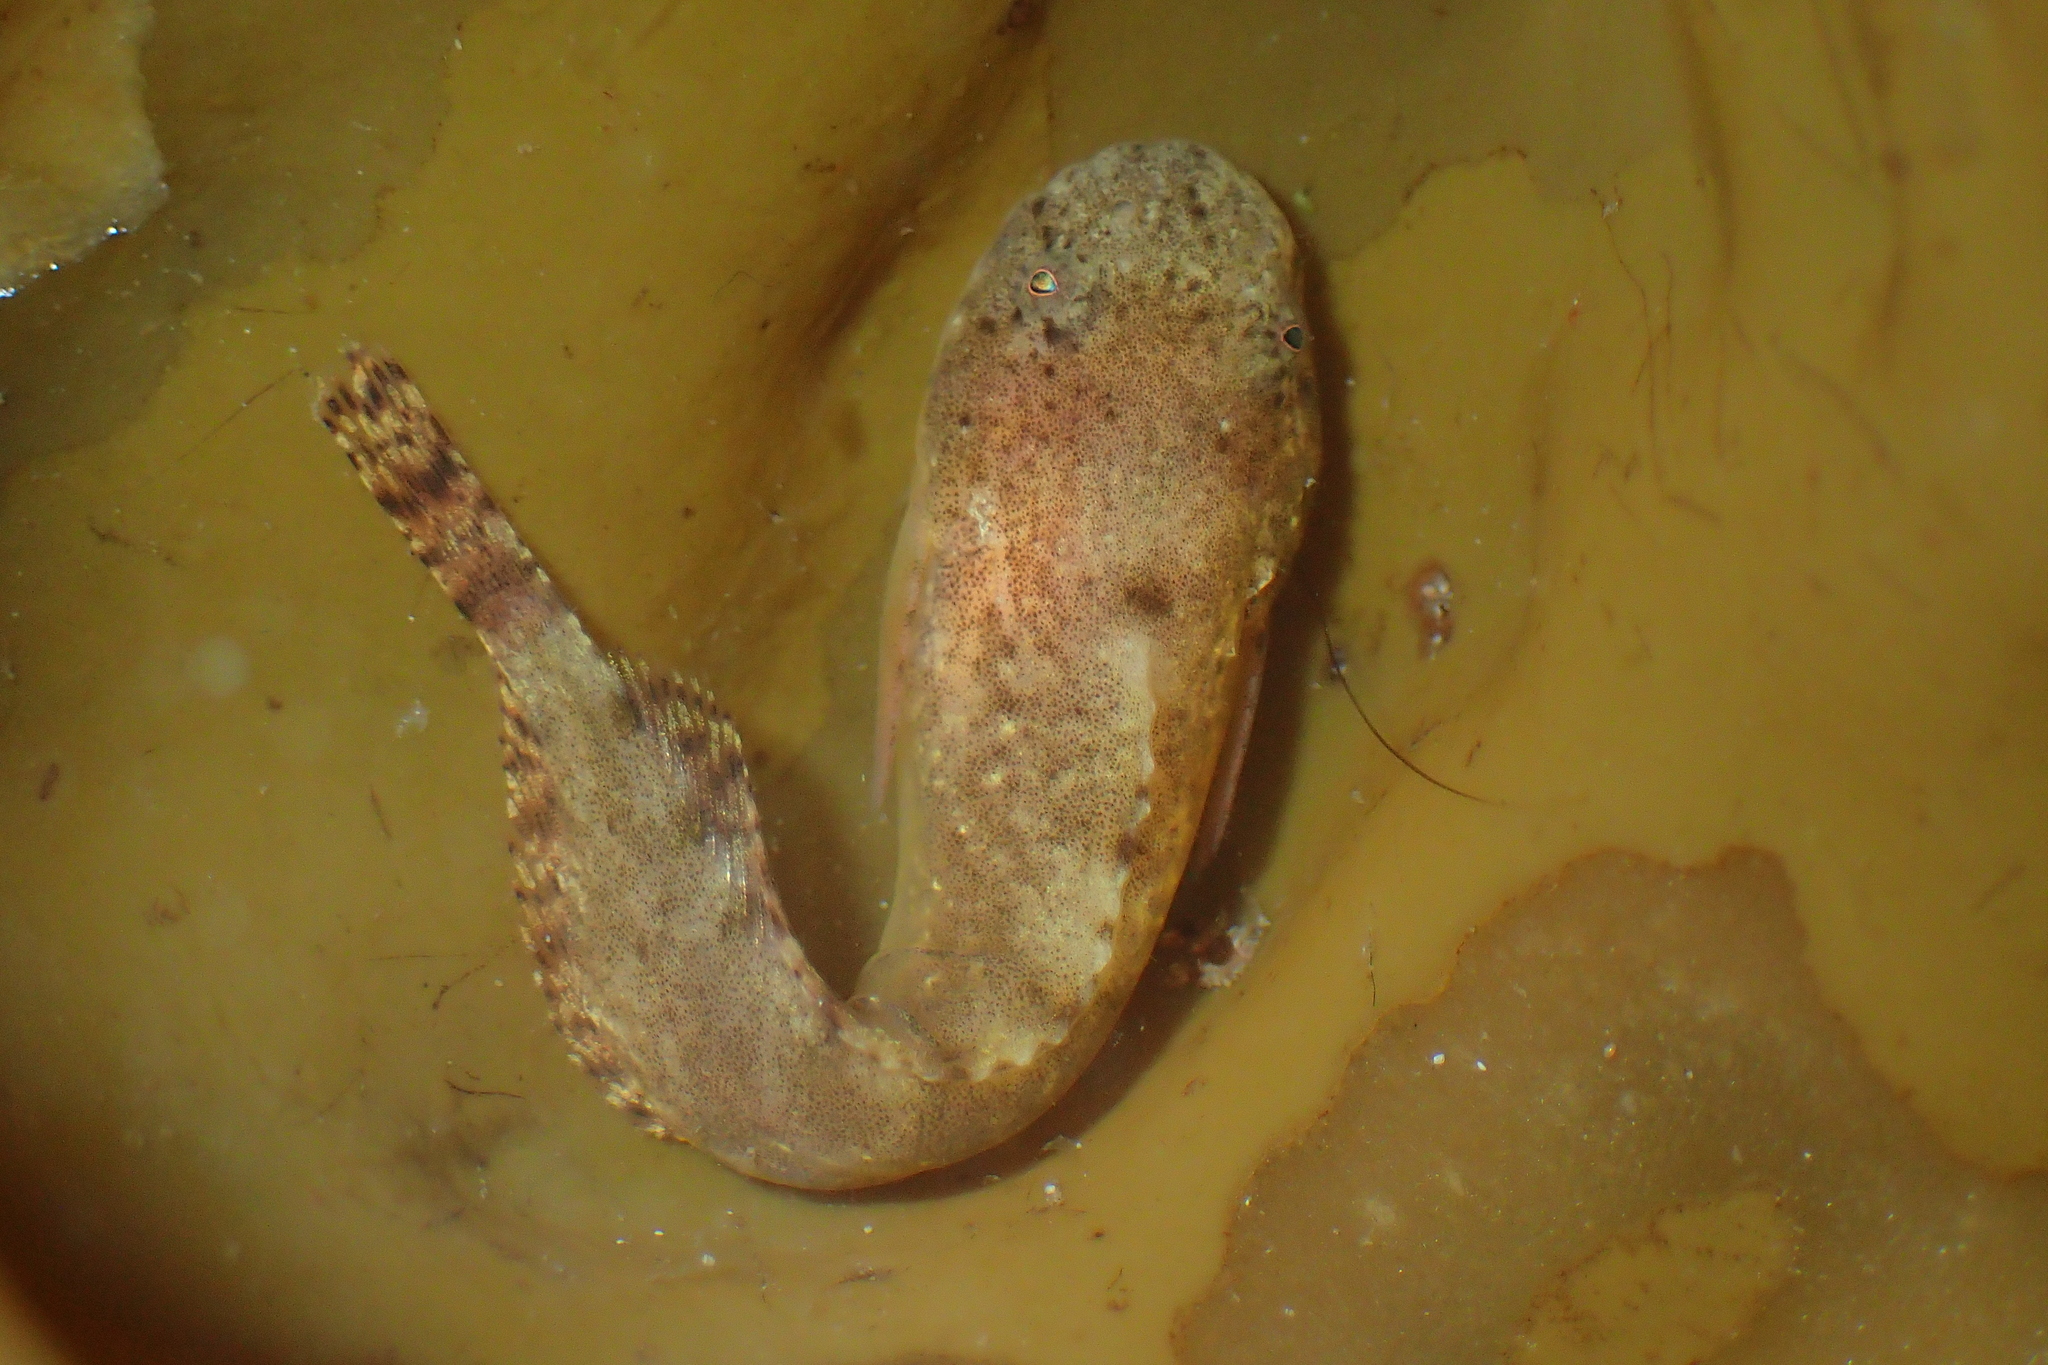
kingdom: Animalia
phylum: Chordata
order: Scorpaeniformes
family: Liparidae
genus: Liparis
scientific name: Liparis montagui
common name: Montagu's sea-snail
